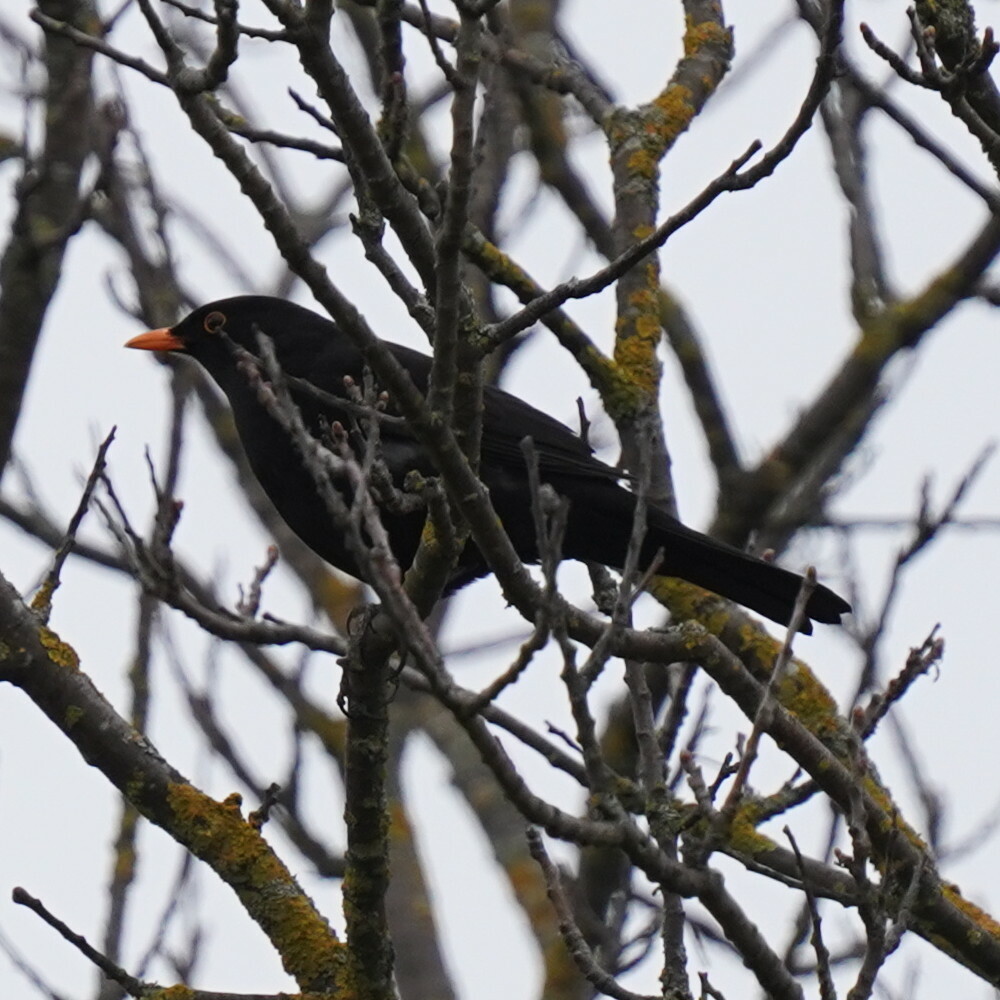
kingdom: Animalia
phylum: Chordata
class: Aves
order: Passeriformes
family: Turdidae
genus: Turdus
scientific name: Turdus merula
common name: Common blackbird
